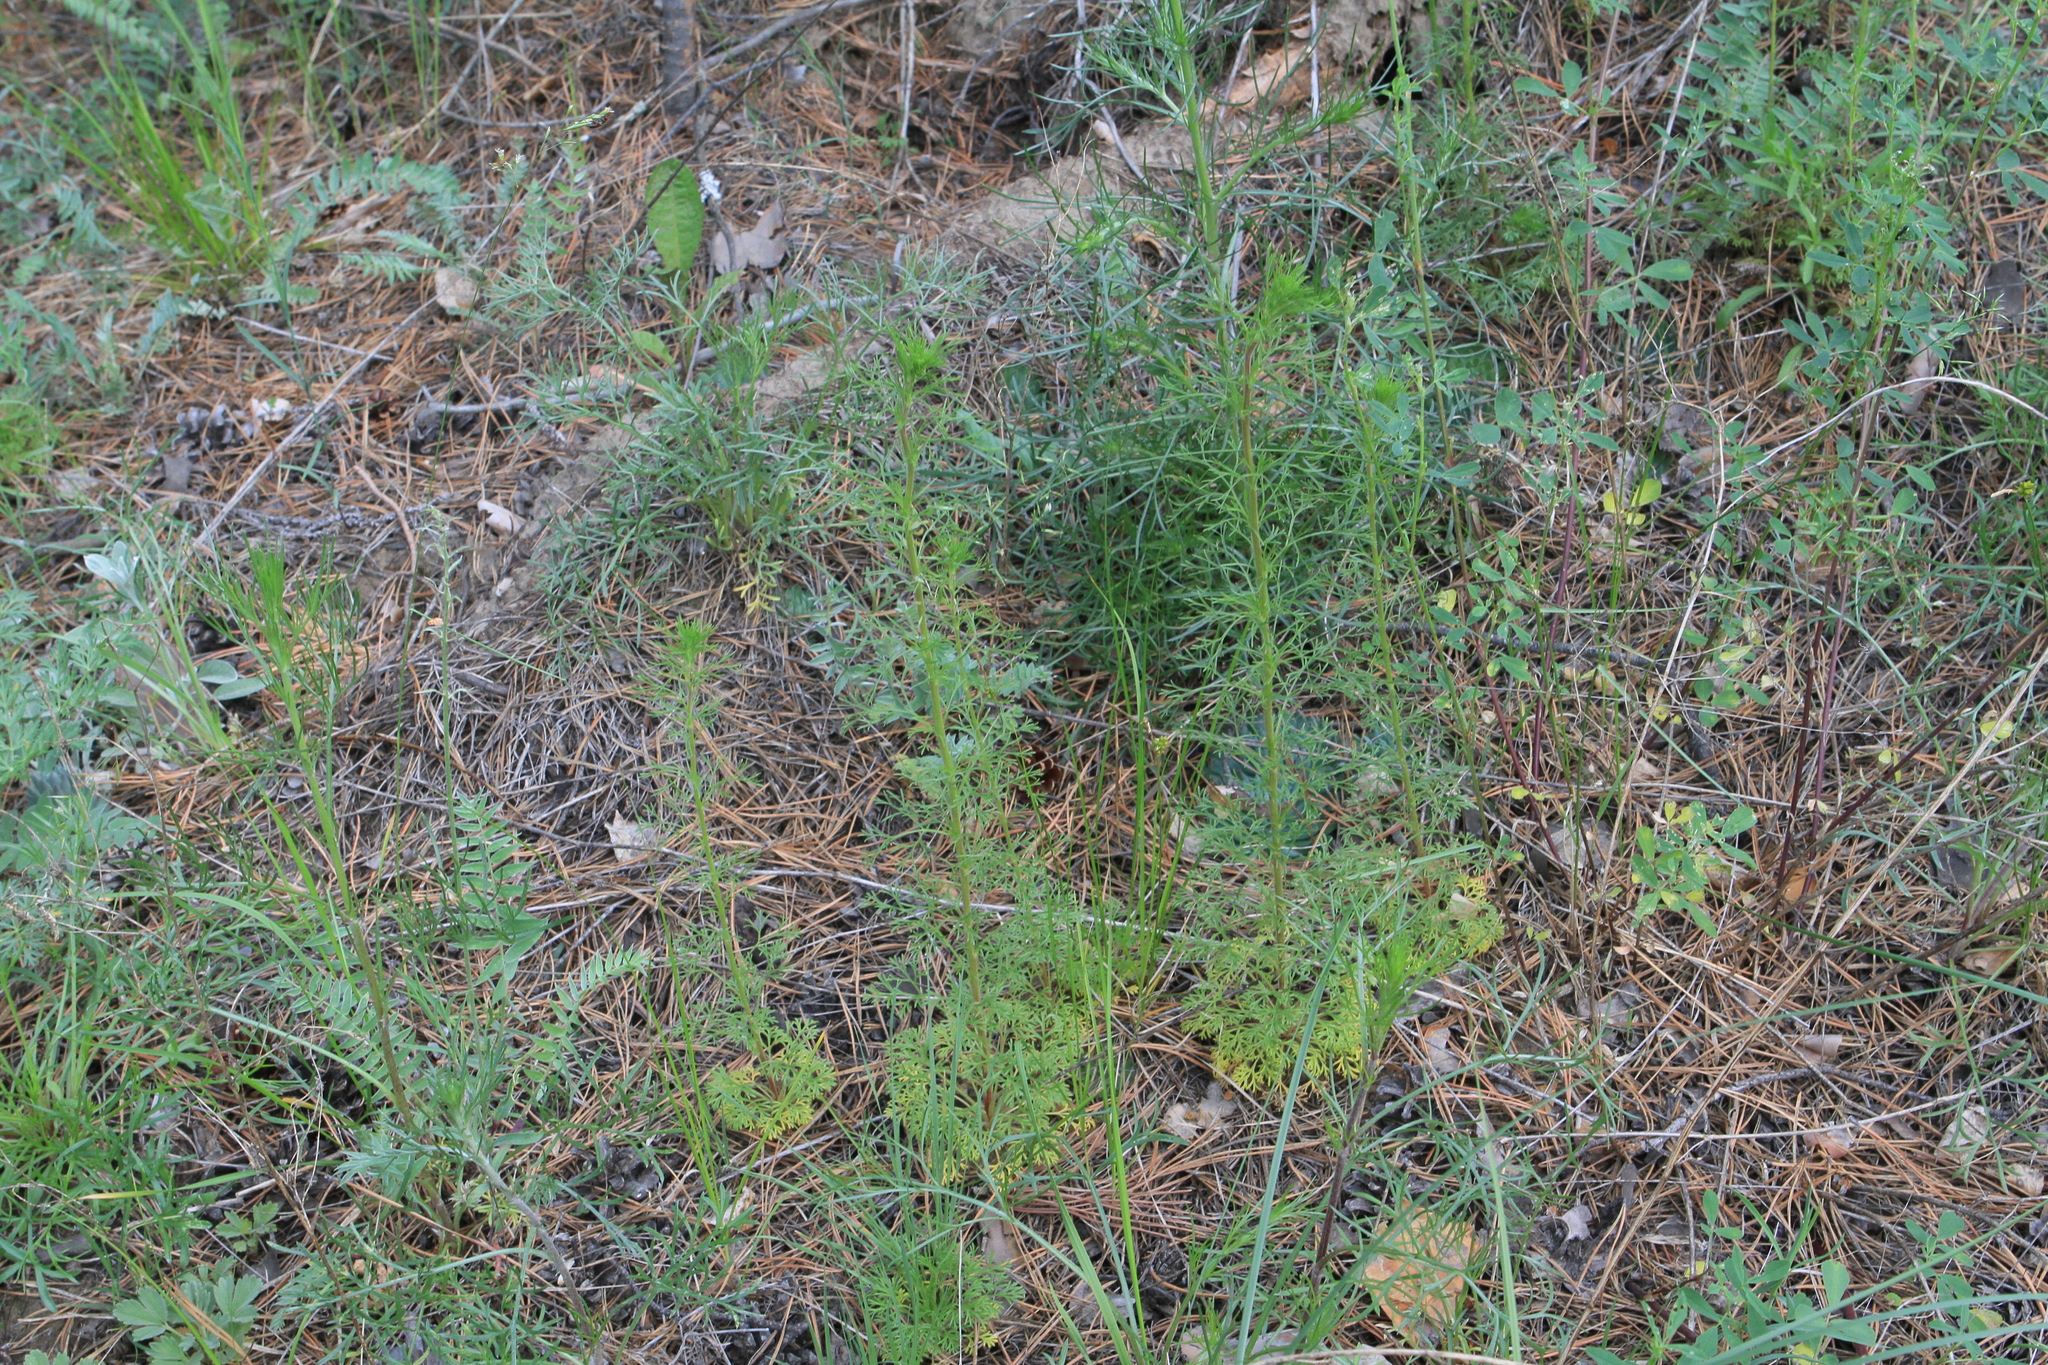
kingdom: Plantae
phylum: Tracheophyta
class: Magnoliopsida
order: Rosales
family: Rosaceae
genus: Chamaerhodos
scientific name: Chamaerhodos erecta
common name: American chamaerhodos
